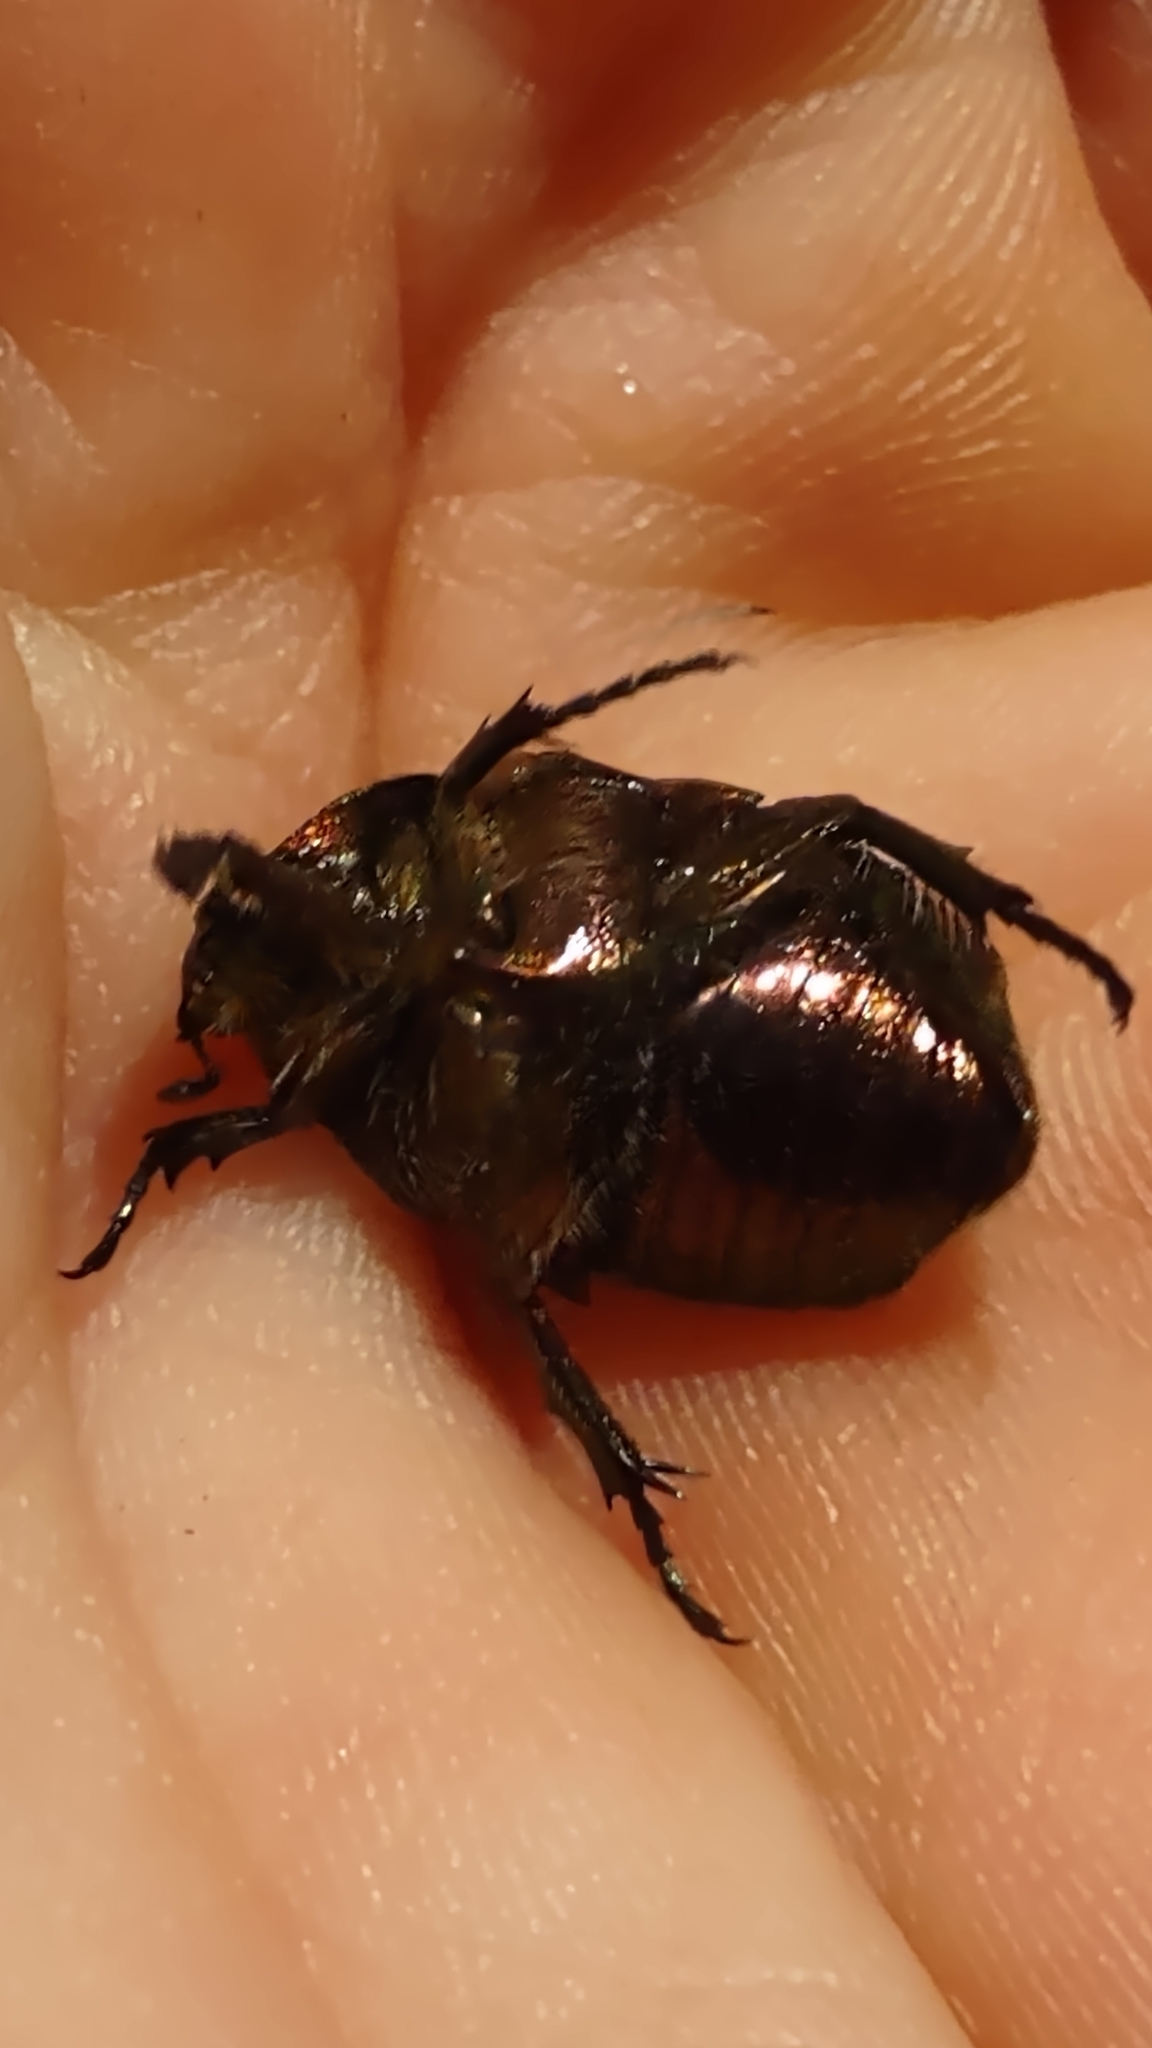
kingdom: Animalia
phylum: Arthropoda
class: Insecta
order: Coleoptera
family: Scarabaeidae
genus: Cetonia
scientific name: Cetonia aurata
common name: Rose chafer
